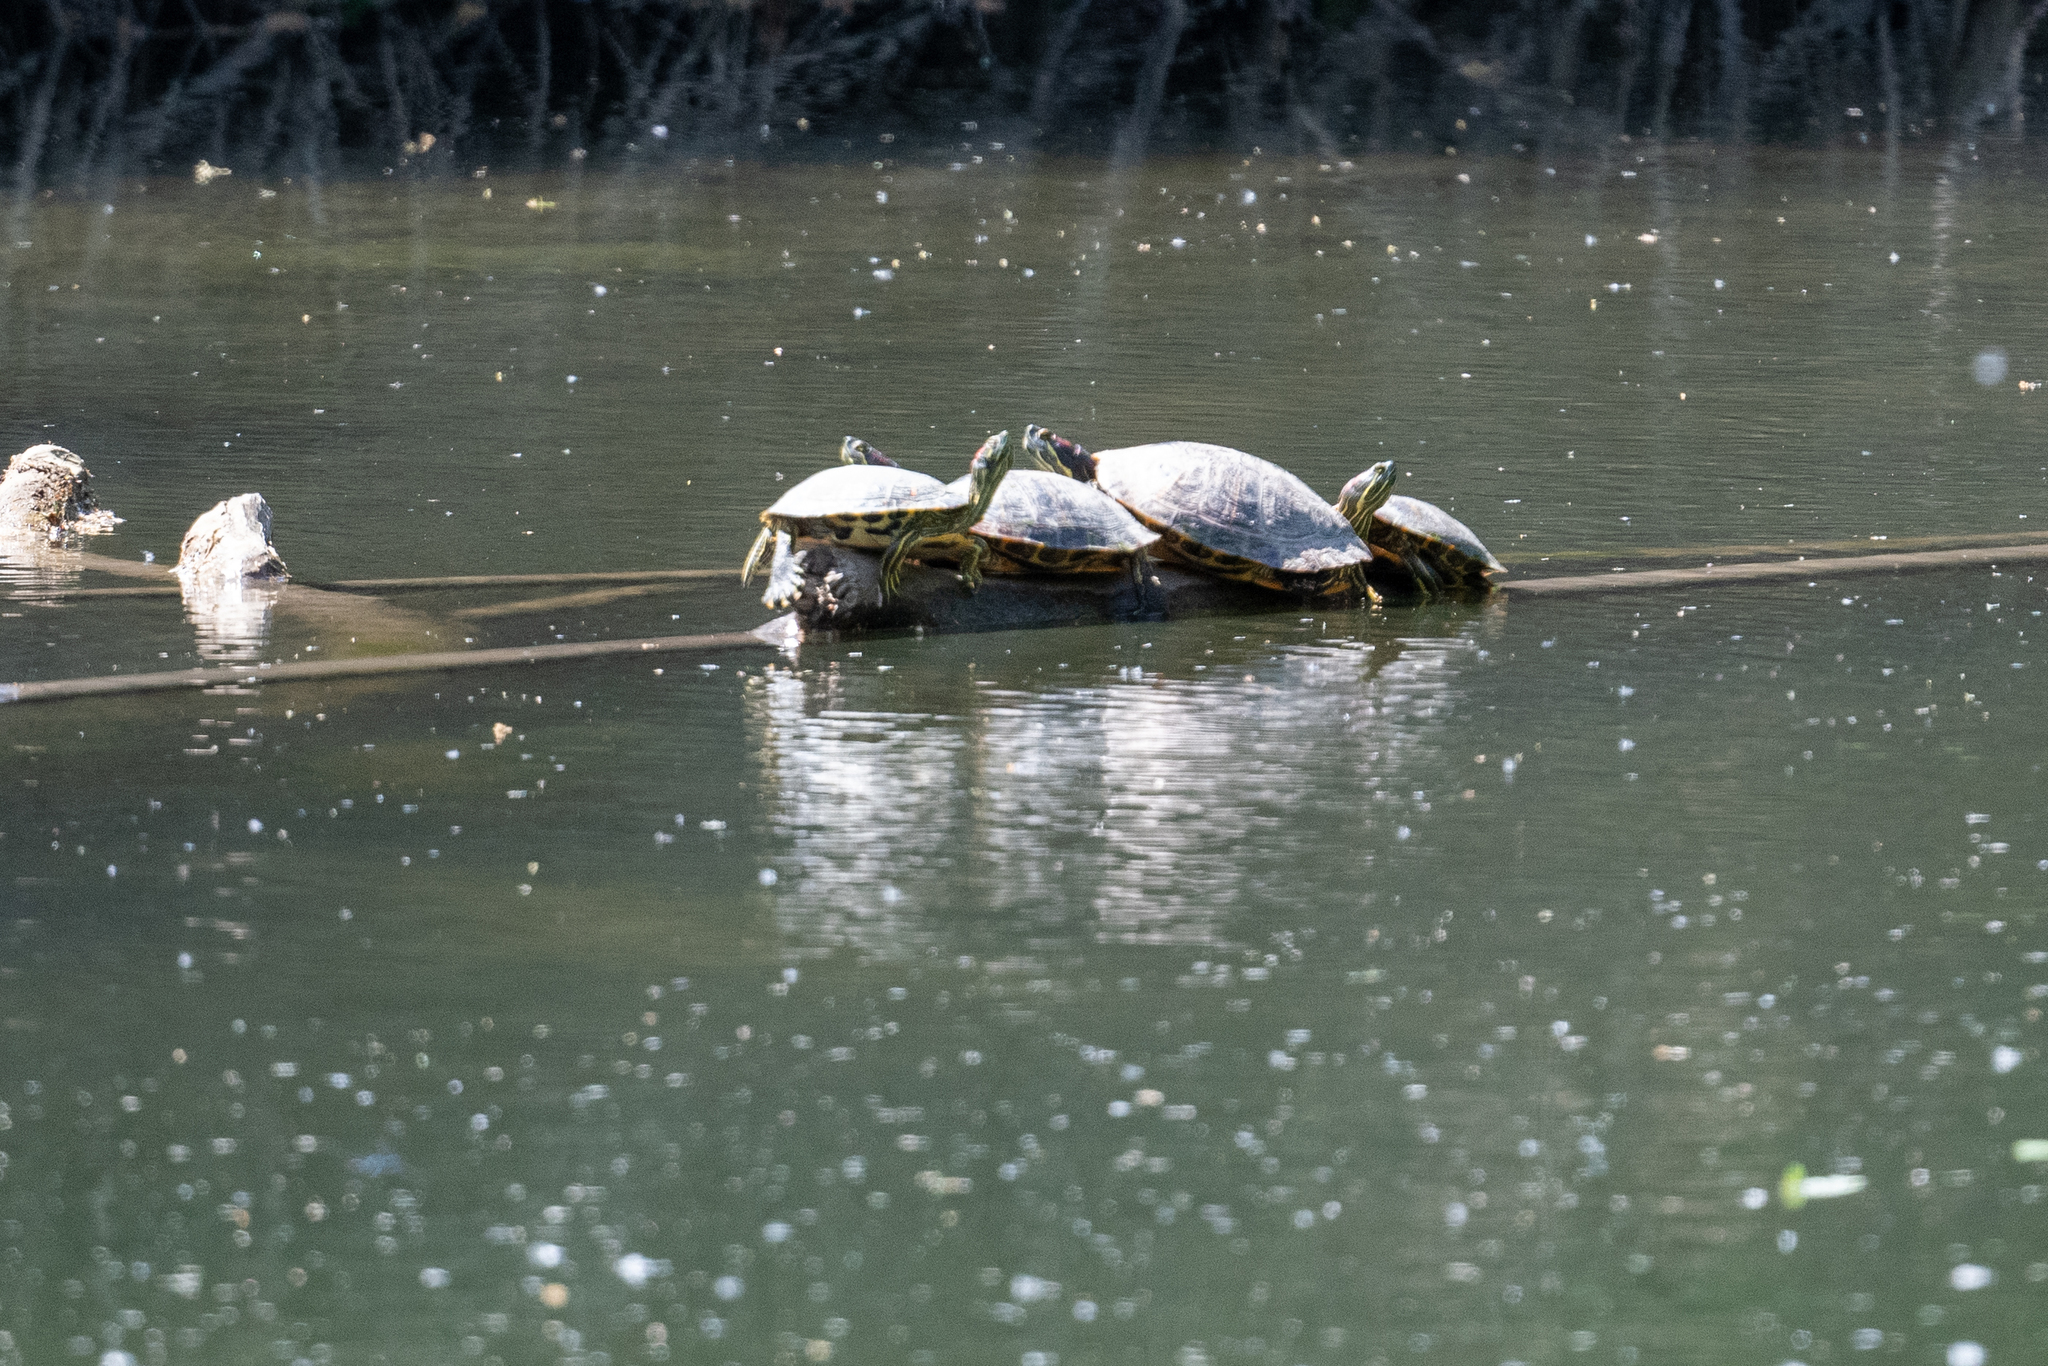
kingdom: Animalia
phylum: Chordata
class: Testudines
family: Emydidae
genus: Trachemys
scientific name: Trachemys scripta
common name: Slider
